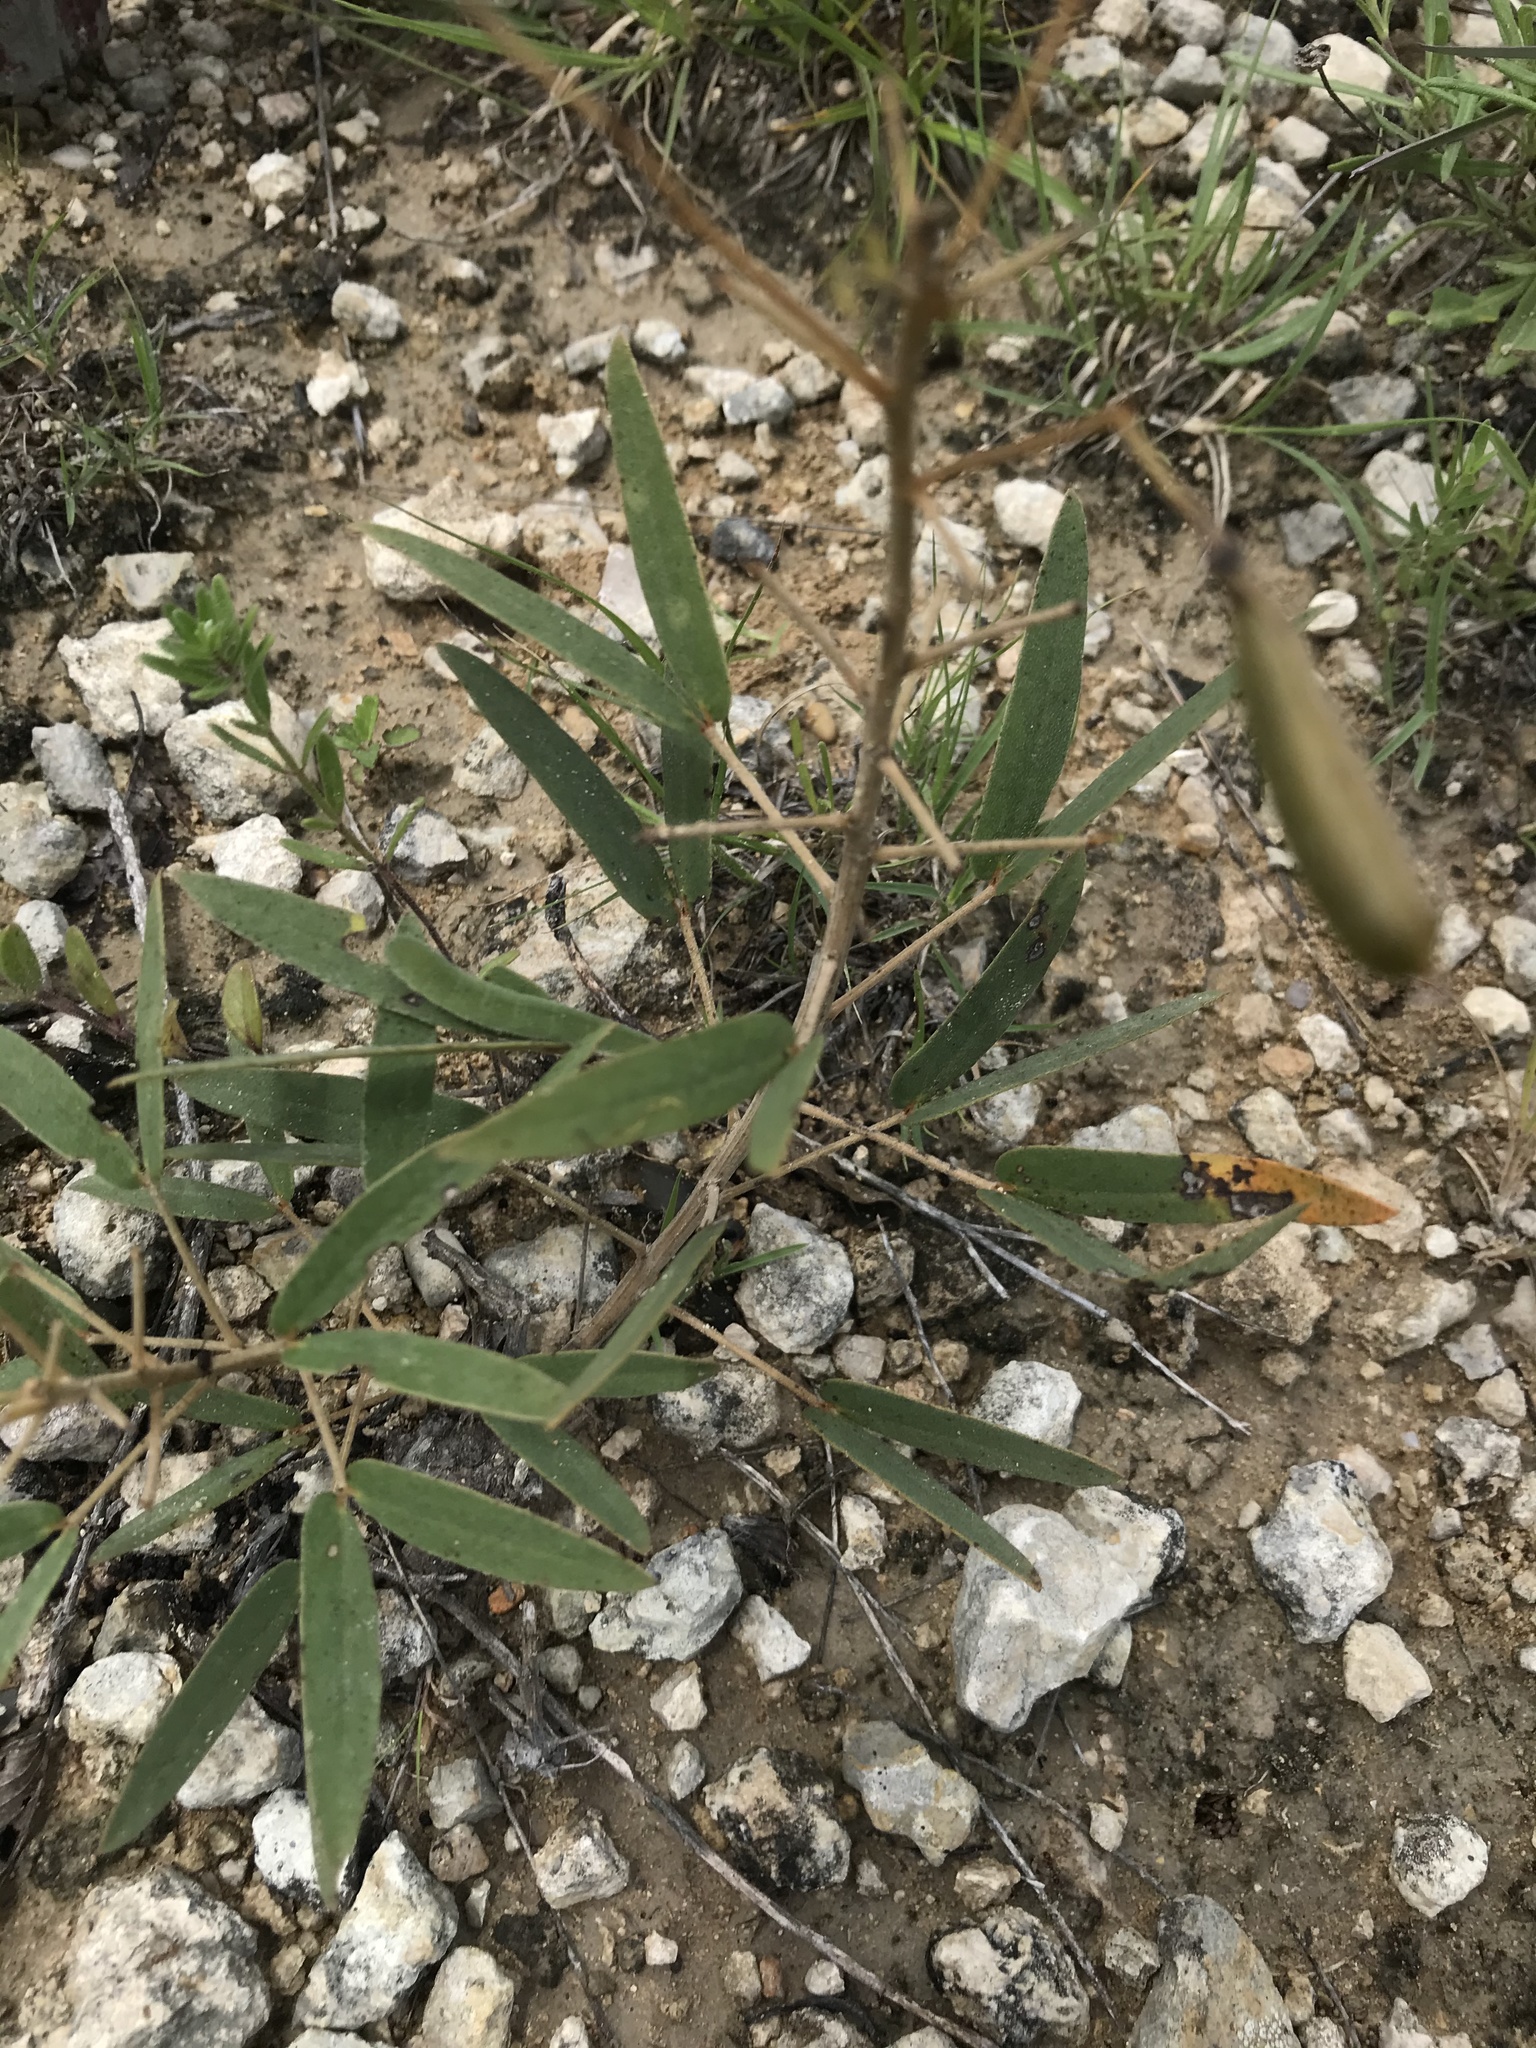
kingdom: Plantae
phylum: Tracheophyta
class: Magnoliopsida
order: Fabales
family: Fabaceae
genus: Senna
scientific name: Senna roemeriana
